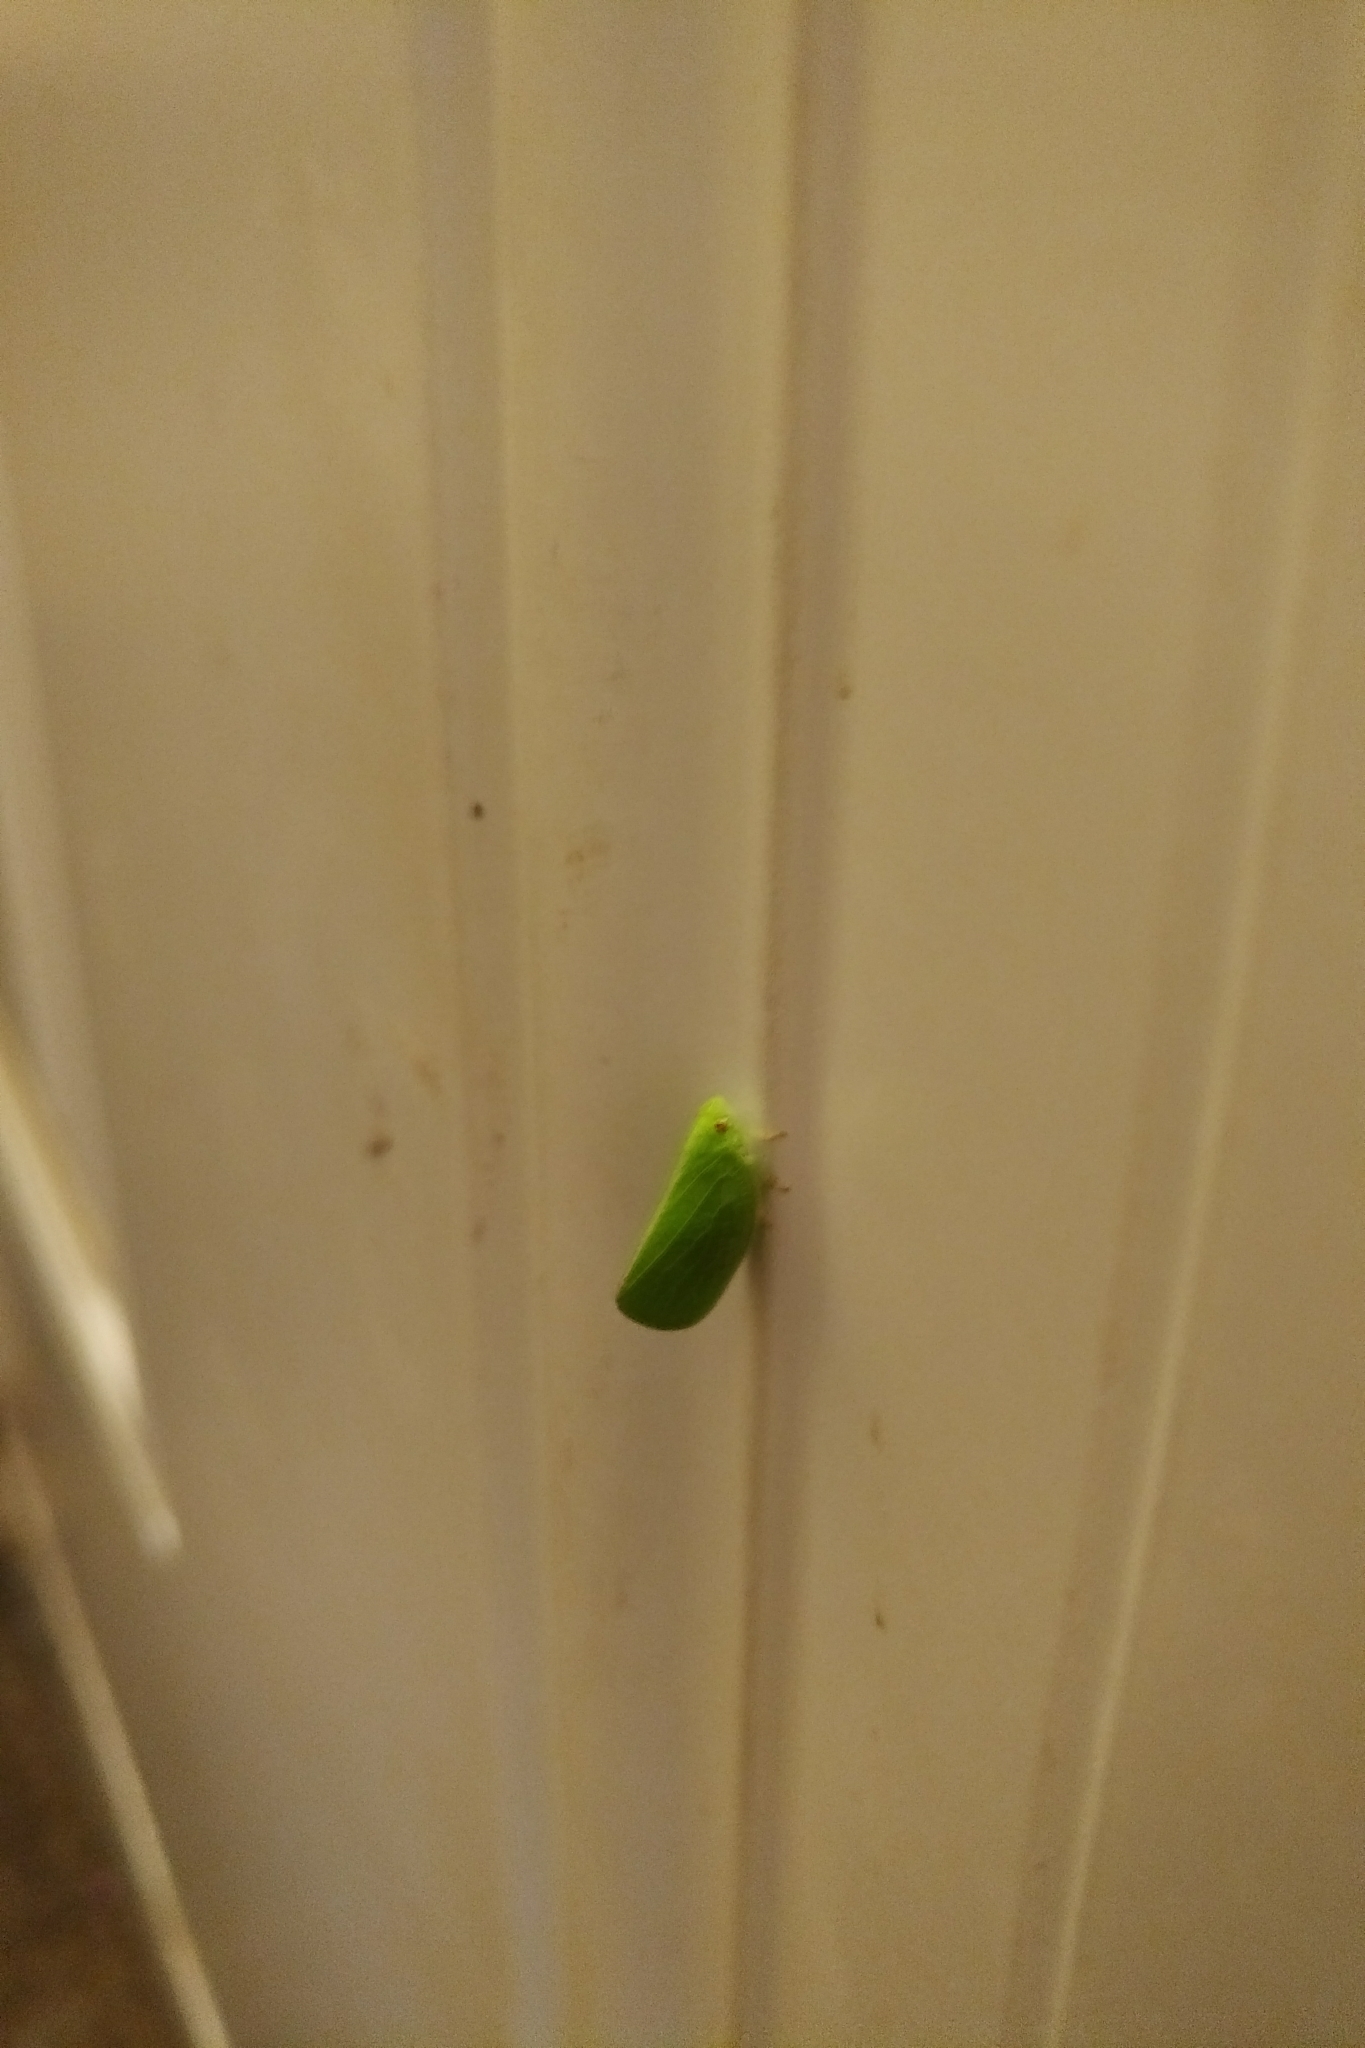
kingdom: Animalia
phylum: Arthropoda
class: Insecta
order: Hemiptera
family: Acanaloniidae
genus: Acanalonia
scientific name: Acanalonia conica
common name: Green cone-headed planthopper
